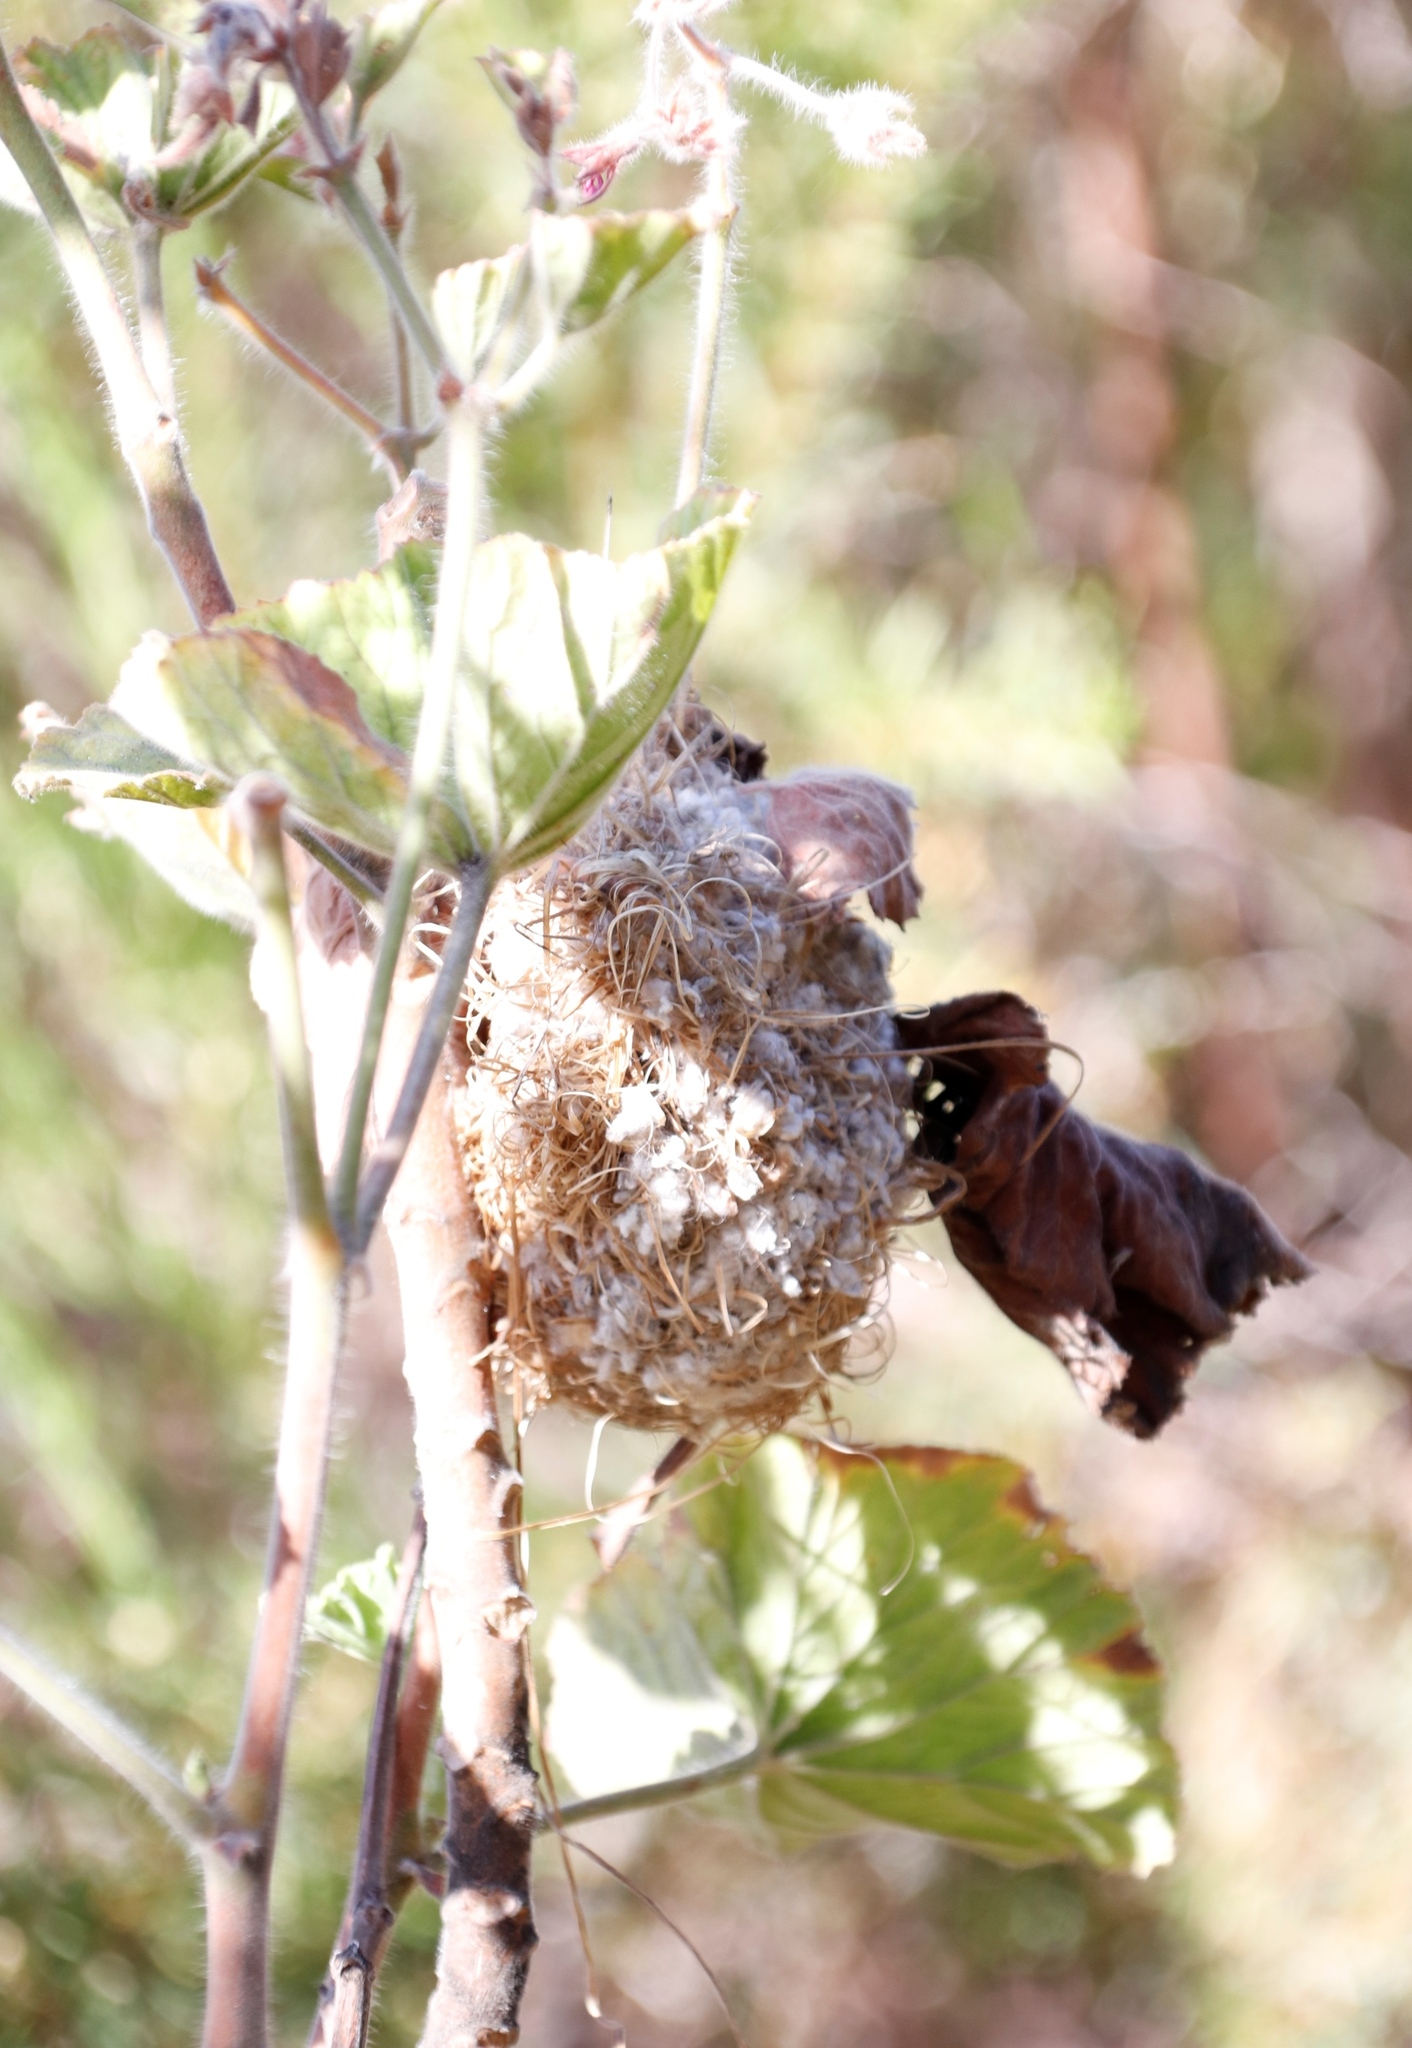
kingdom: Animalia
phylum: Chordata
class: Aves
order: Passeriformes
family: Cisticolidae
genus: Prinia
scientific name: Prinia maculosa
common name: Karoo prinia
